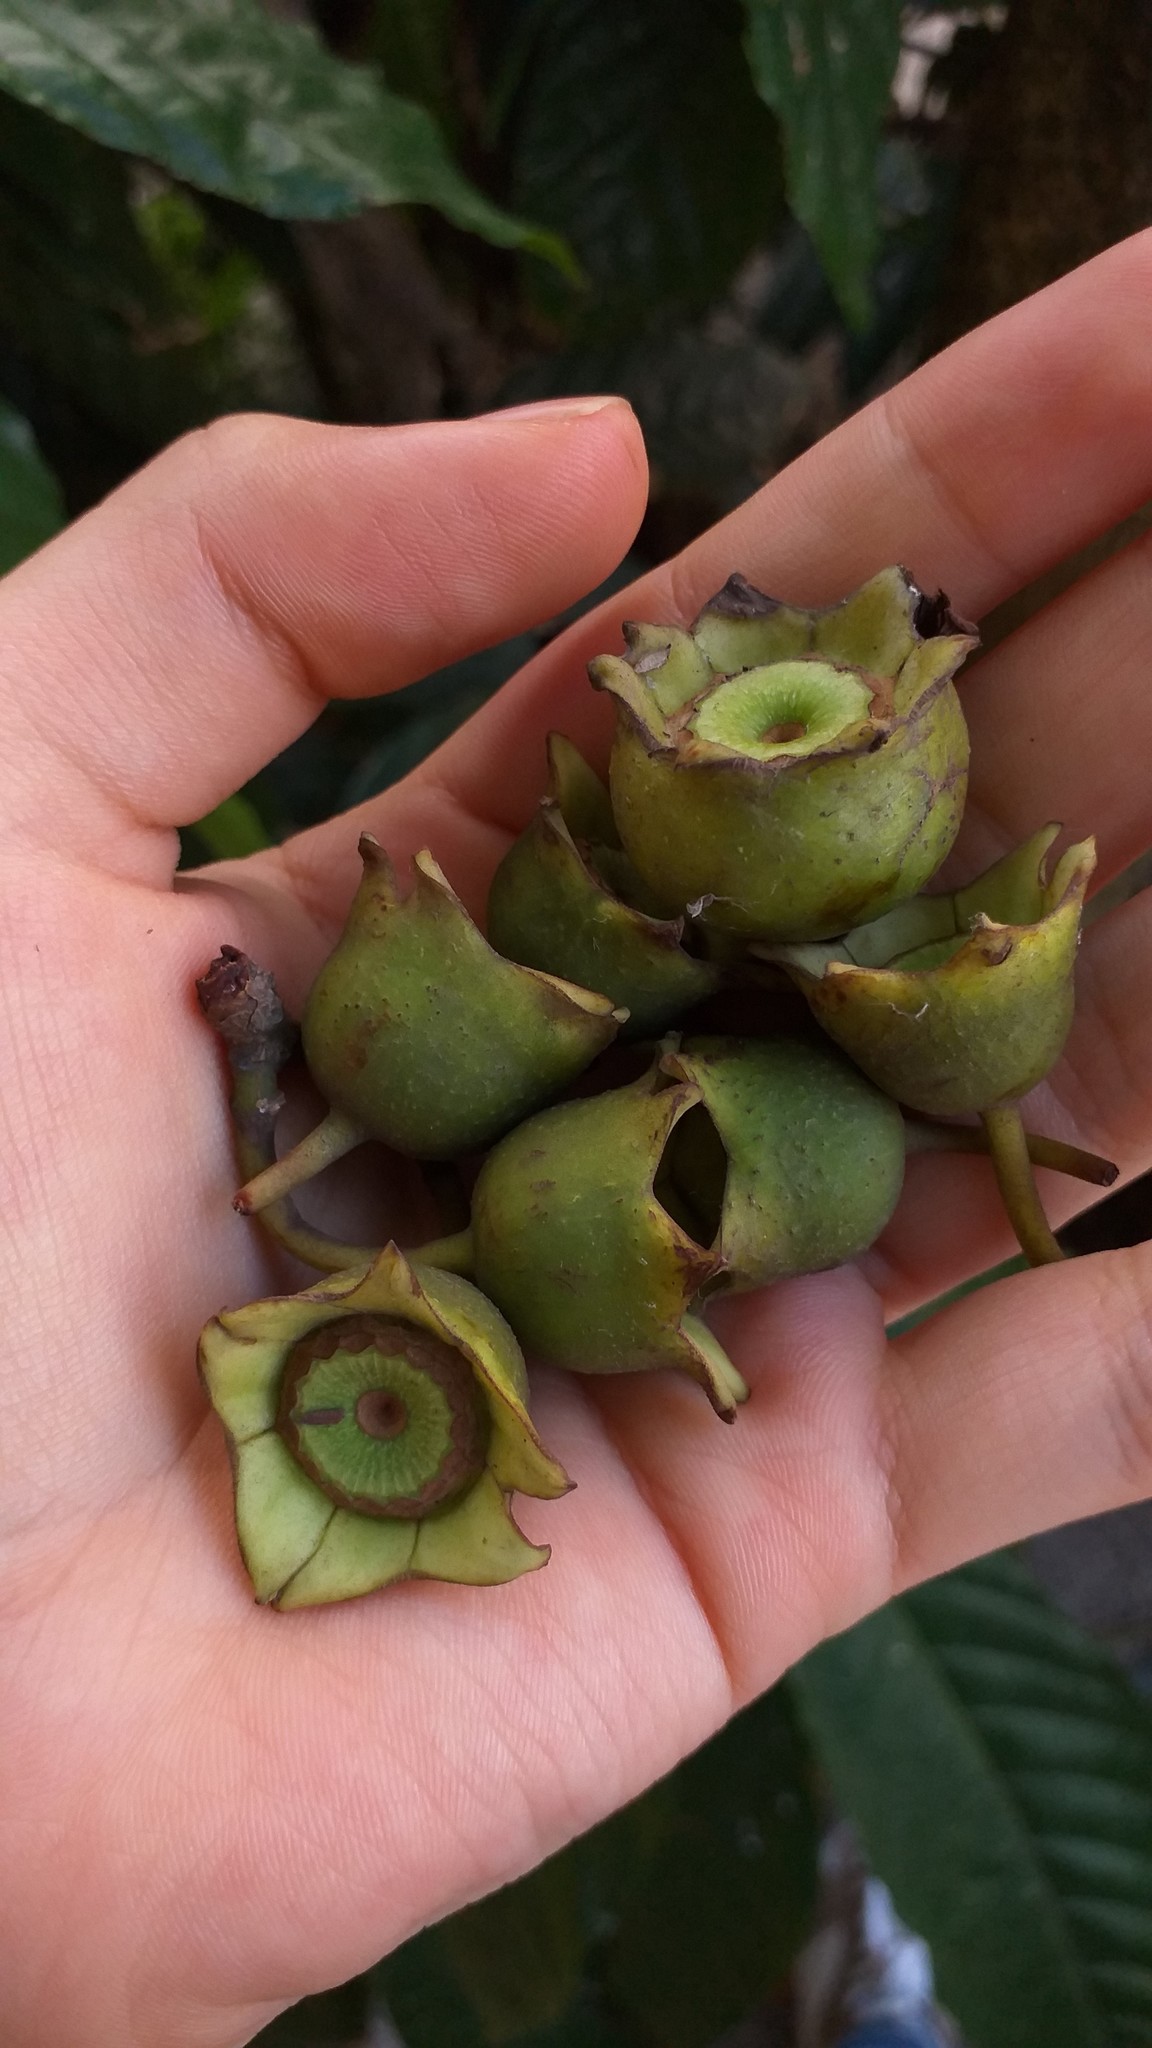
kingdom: Plantae
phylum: Tracheophyta
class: Magnoliopsida
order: Myrtales
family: Melastomataceae
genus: Bellucia
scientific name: Bellucia pentamera
